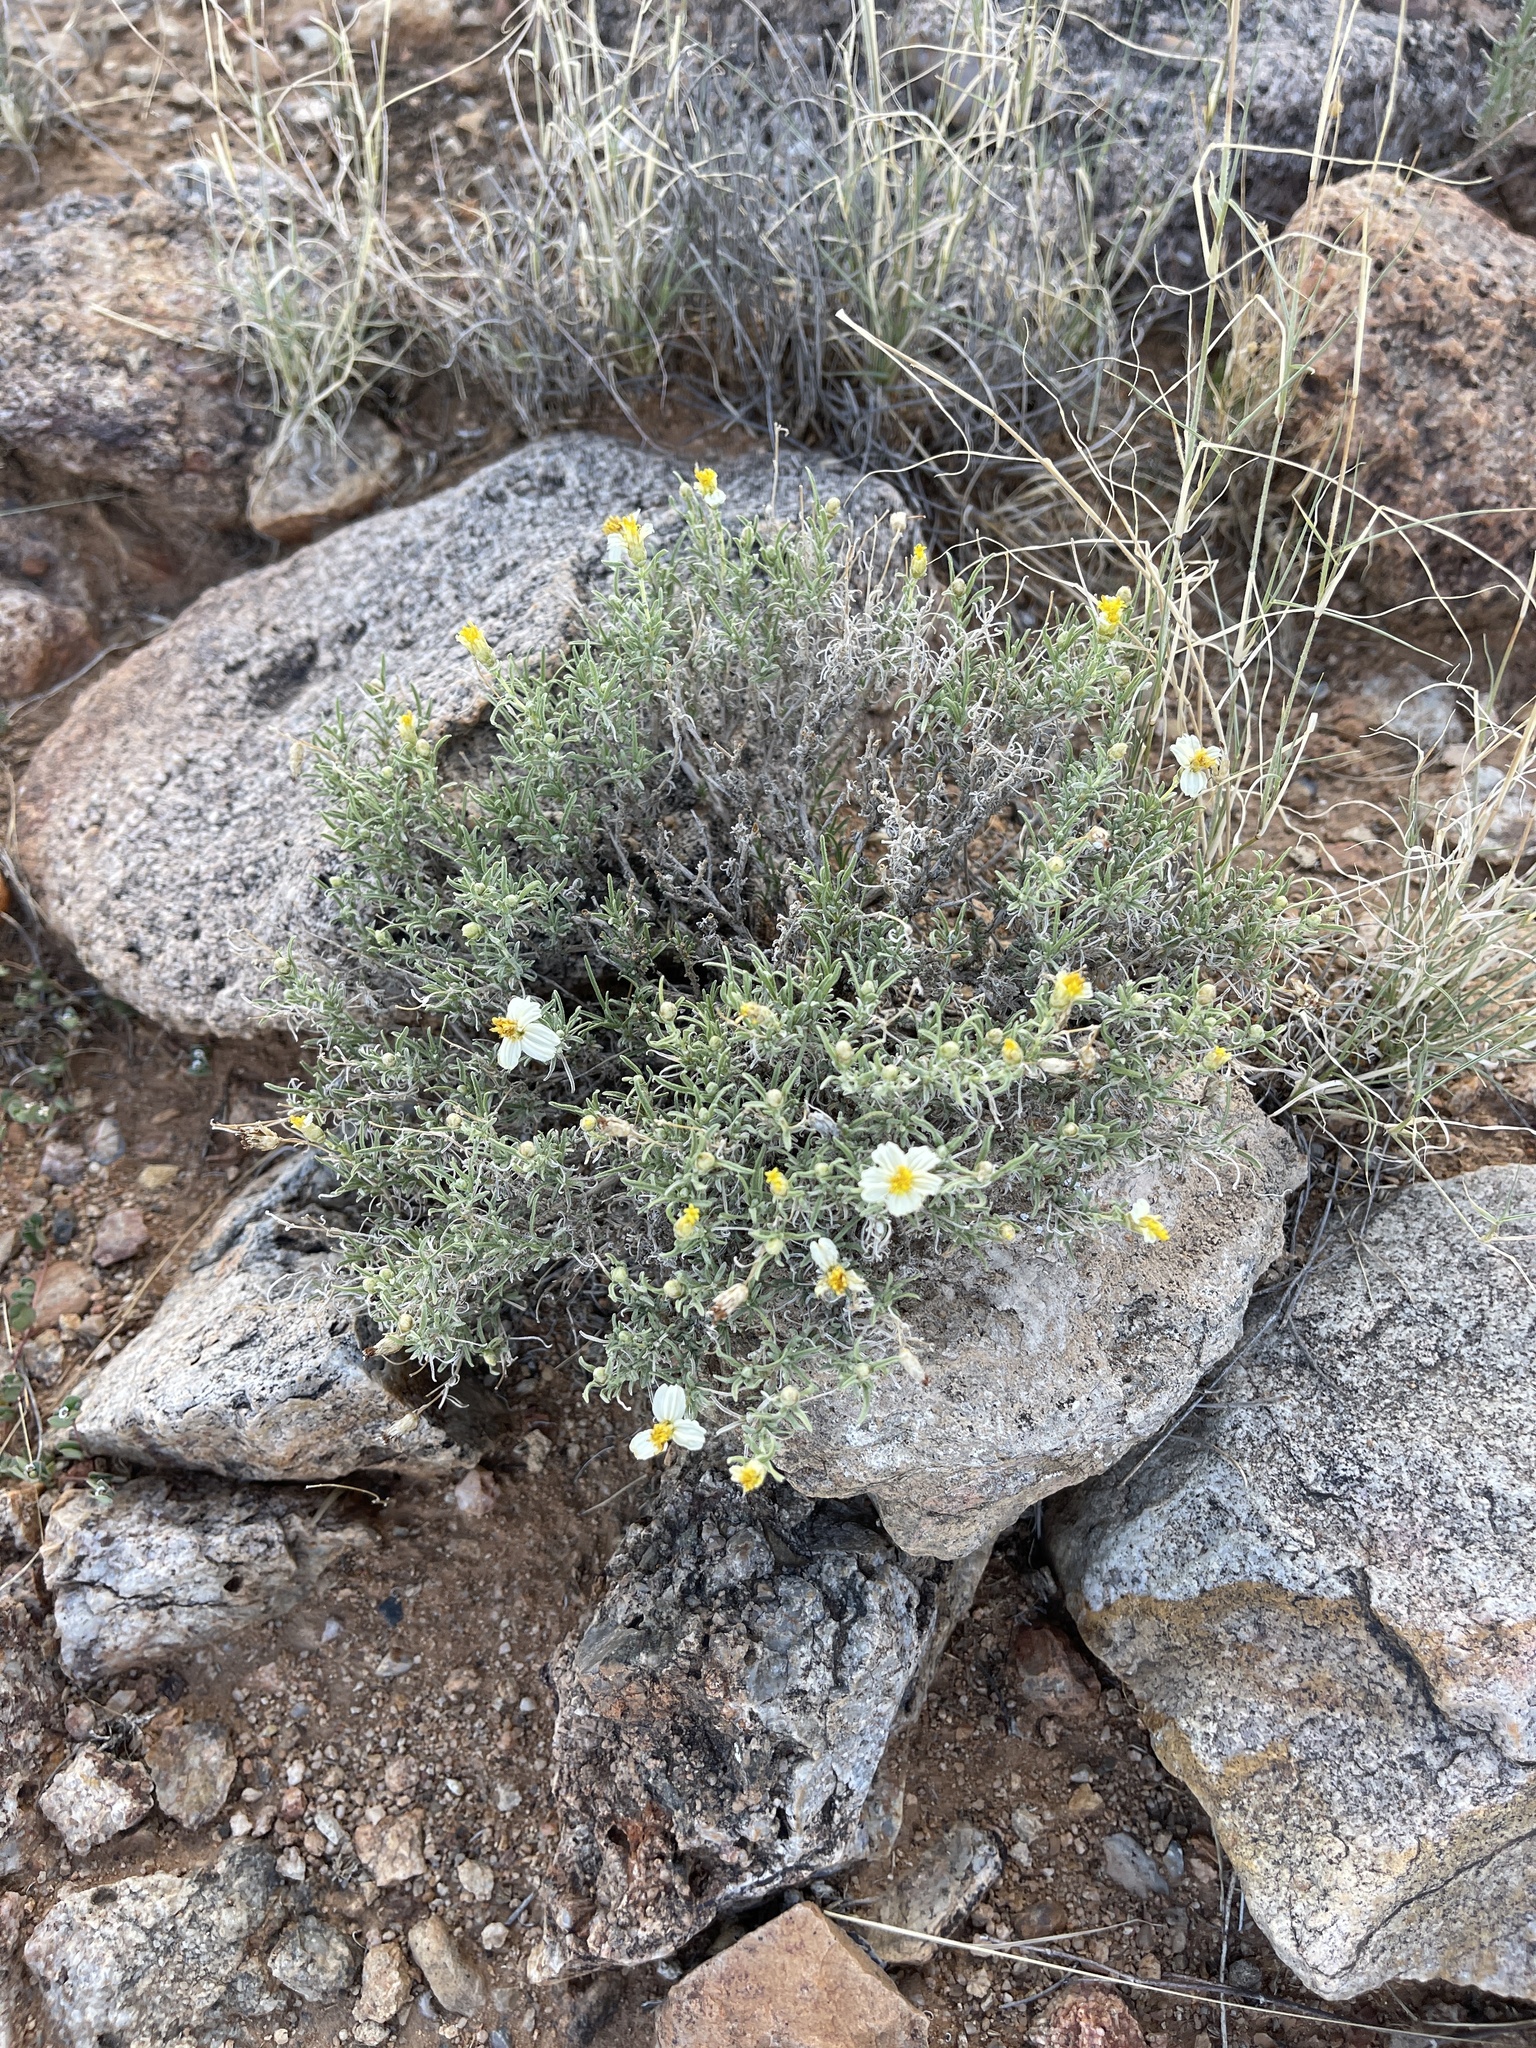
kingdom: Plantae
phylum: Tracheophyta
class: Magnoliopsida
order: Asterales
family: Asteraceae
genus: Zinnia
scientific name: Zinnia acerosa
